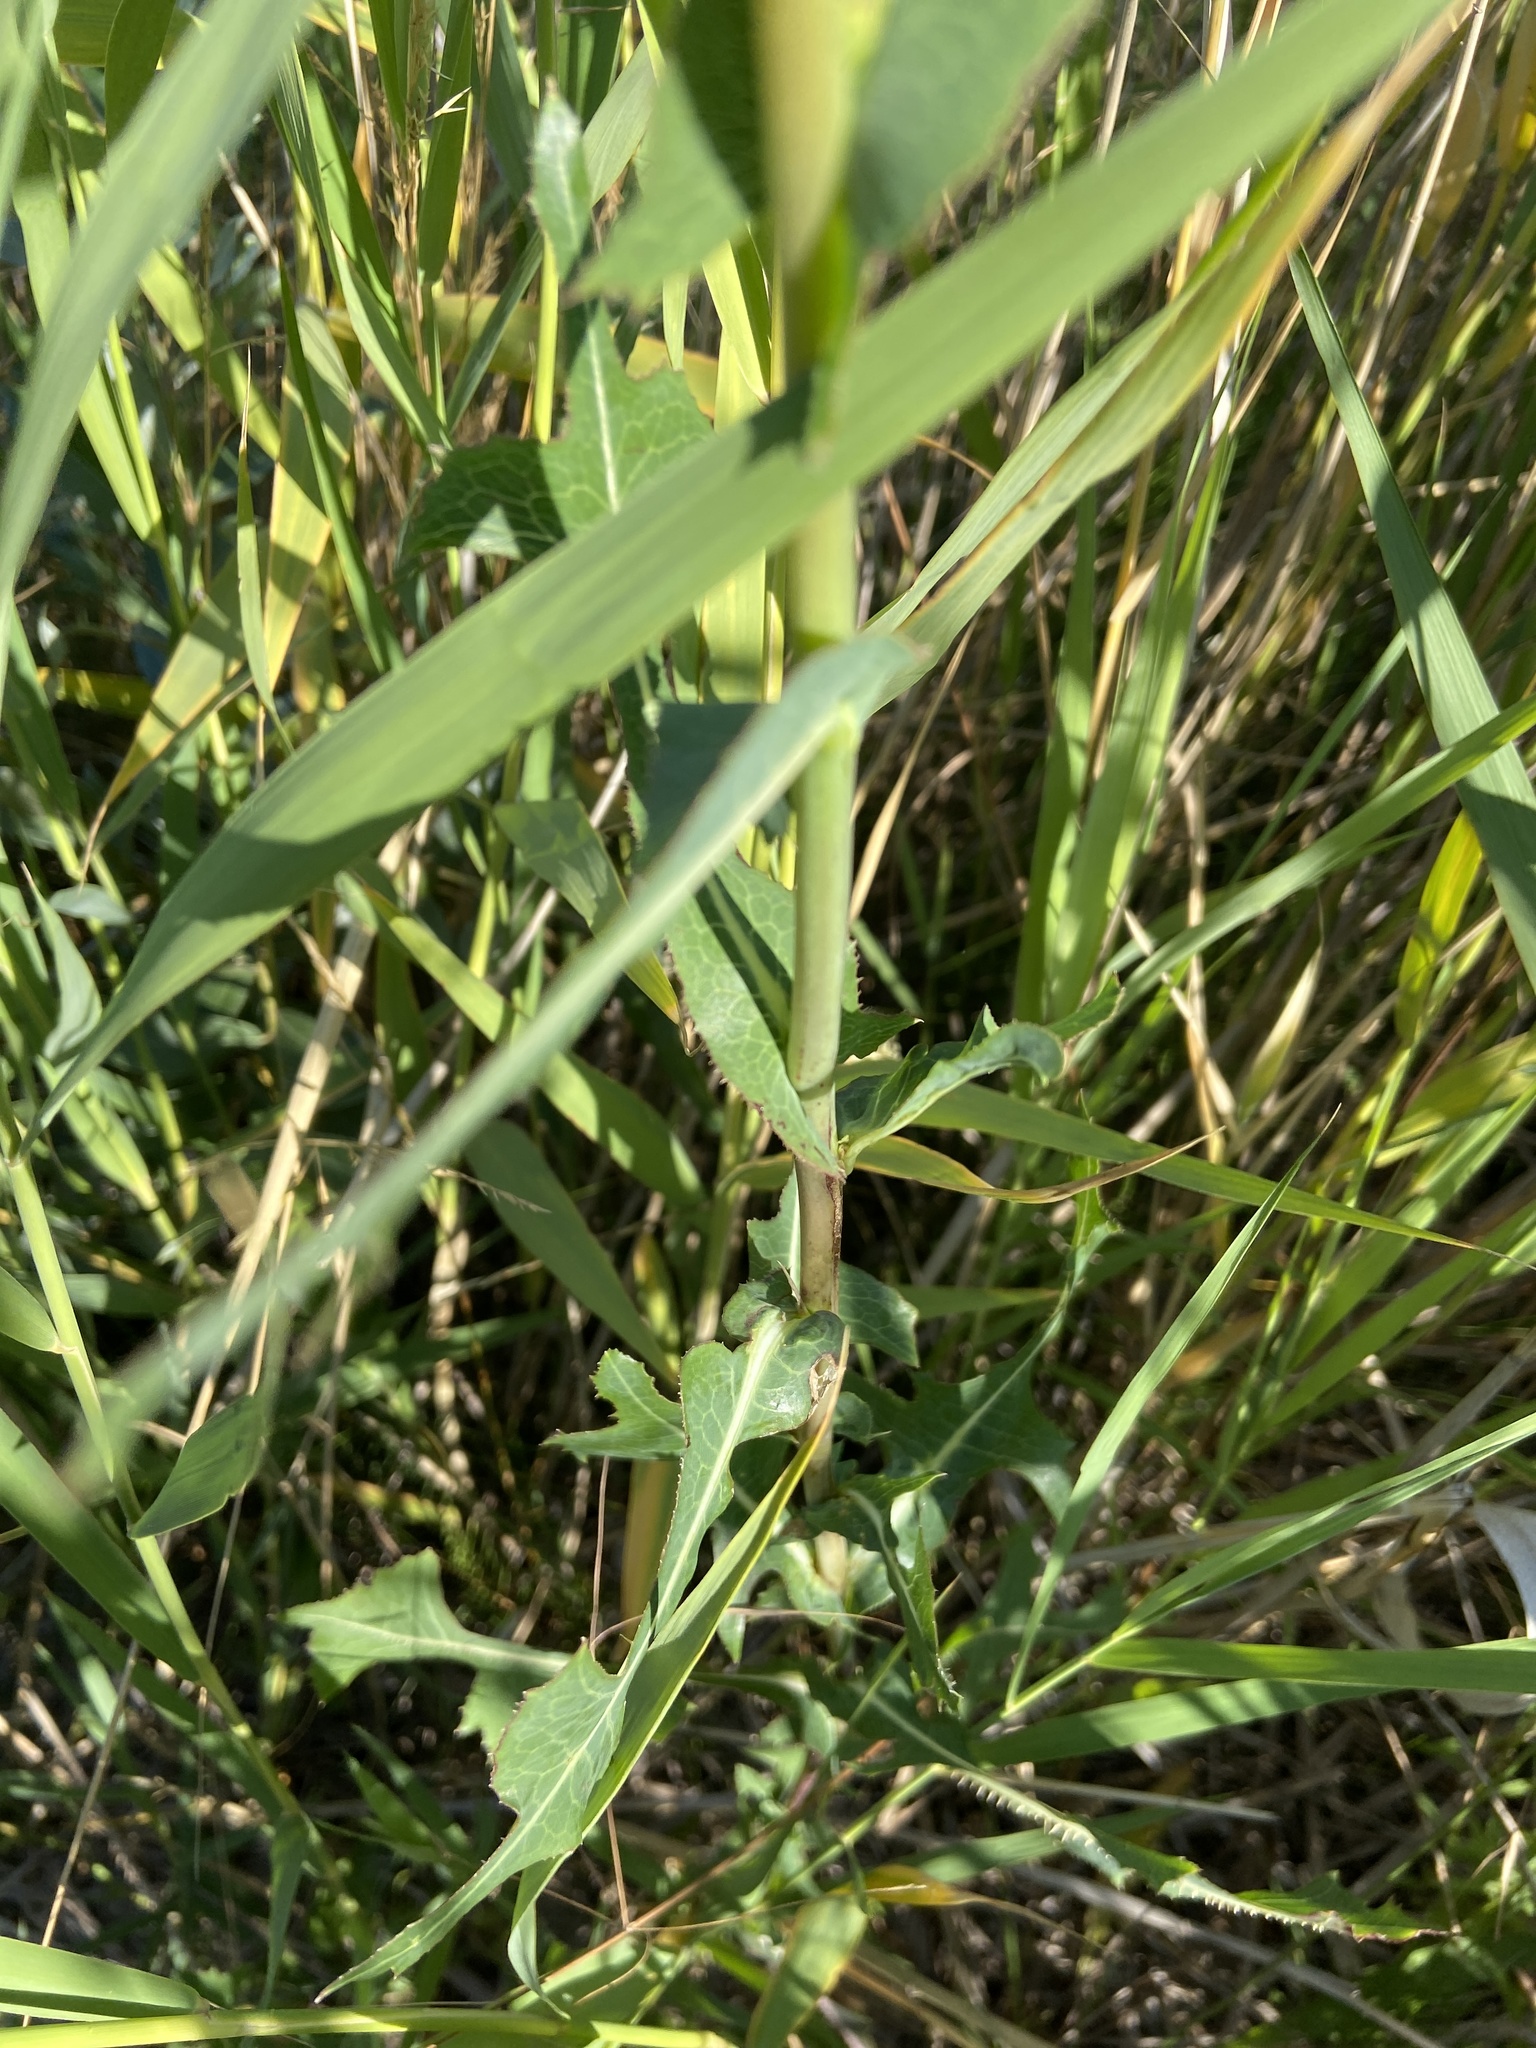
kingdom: Plantae
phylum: Tracheophyta
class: Magnoliopsida
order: Asterales
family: Asteraceae
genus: Lactuca
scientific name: Lactuca serriola
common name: Prickly lettuce
